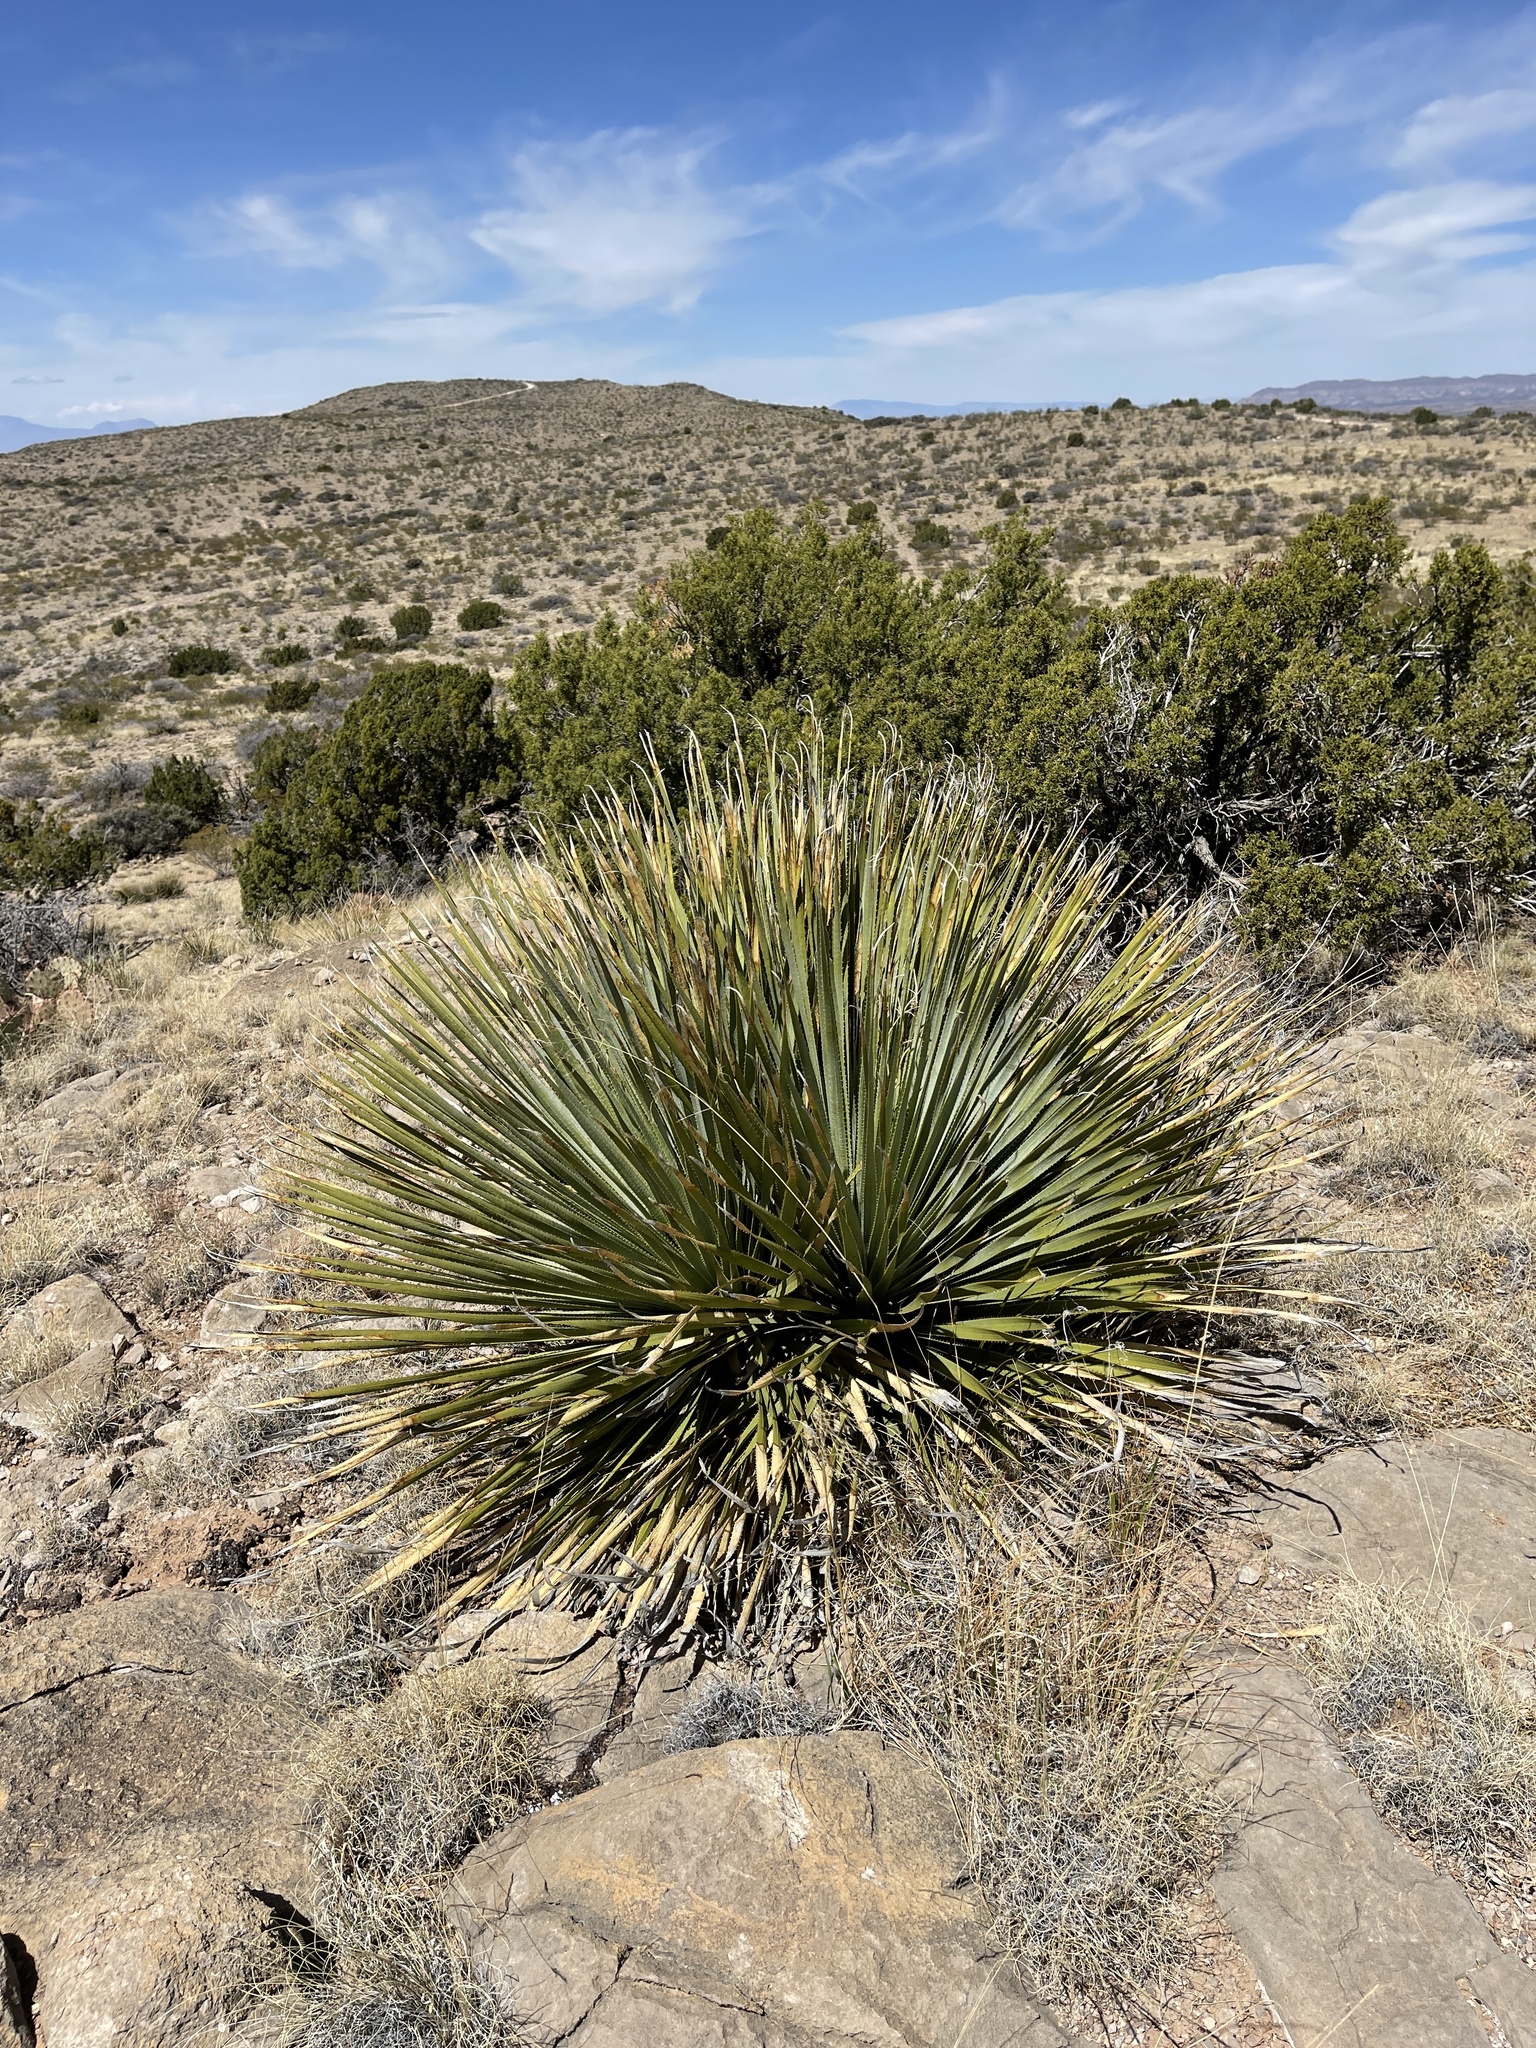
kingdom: Plantae
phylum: Tracheophyta
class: Liliopsida
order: Asparagales
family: Asparagaceae
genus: Dasylirion
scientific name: Dasylirion wheeleri
